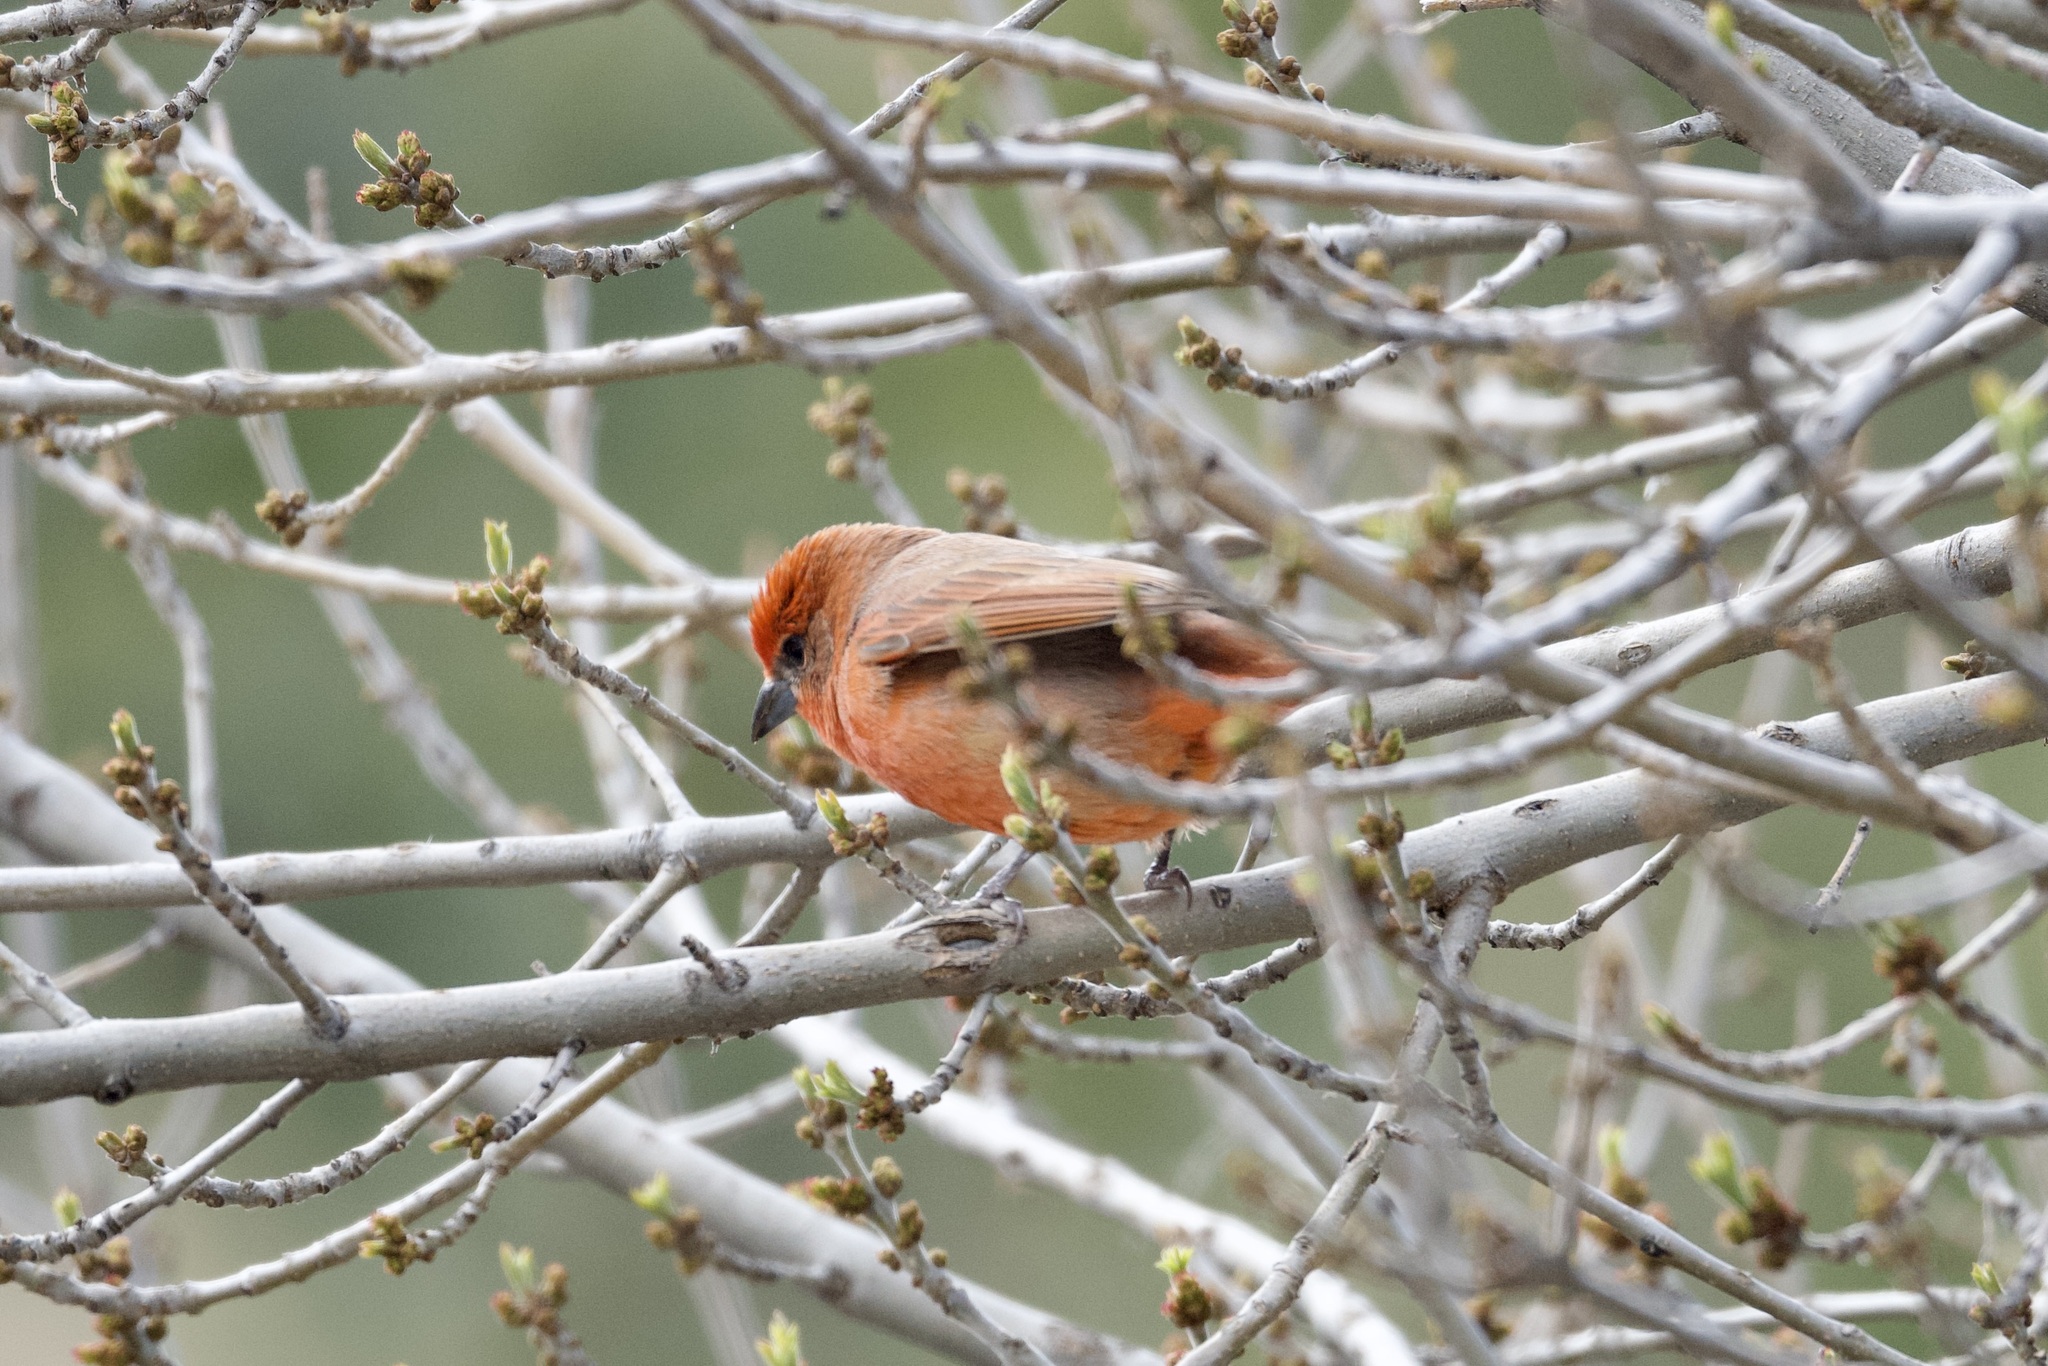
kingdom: Animalia
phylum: Chordata
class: Aves
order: Passeriformes
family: Cardinalidae
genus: Piranga
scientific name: Piranga flava
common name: Red tanager
